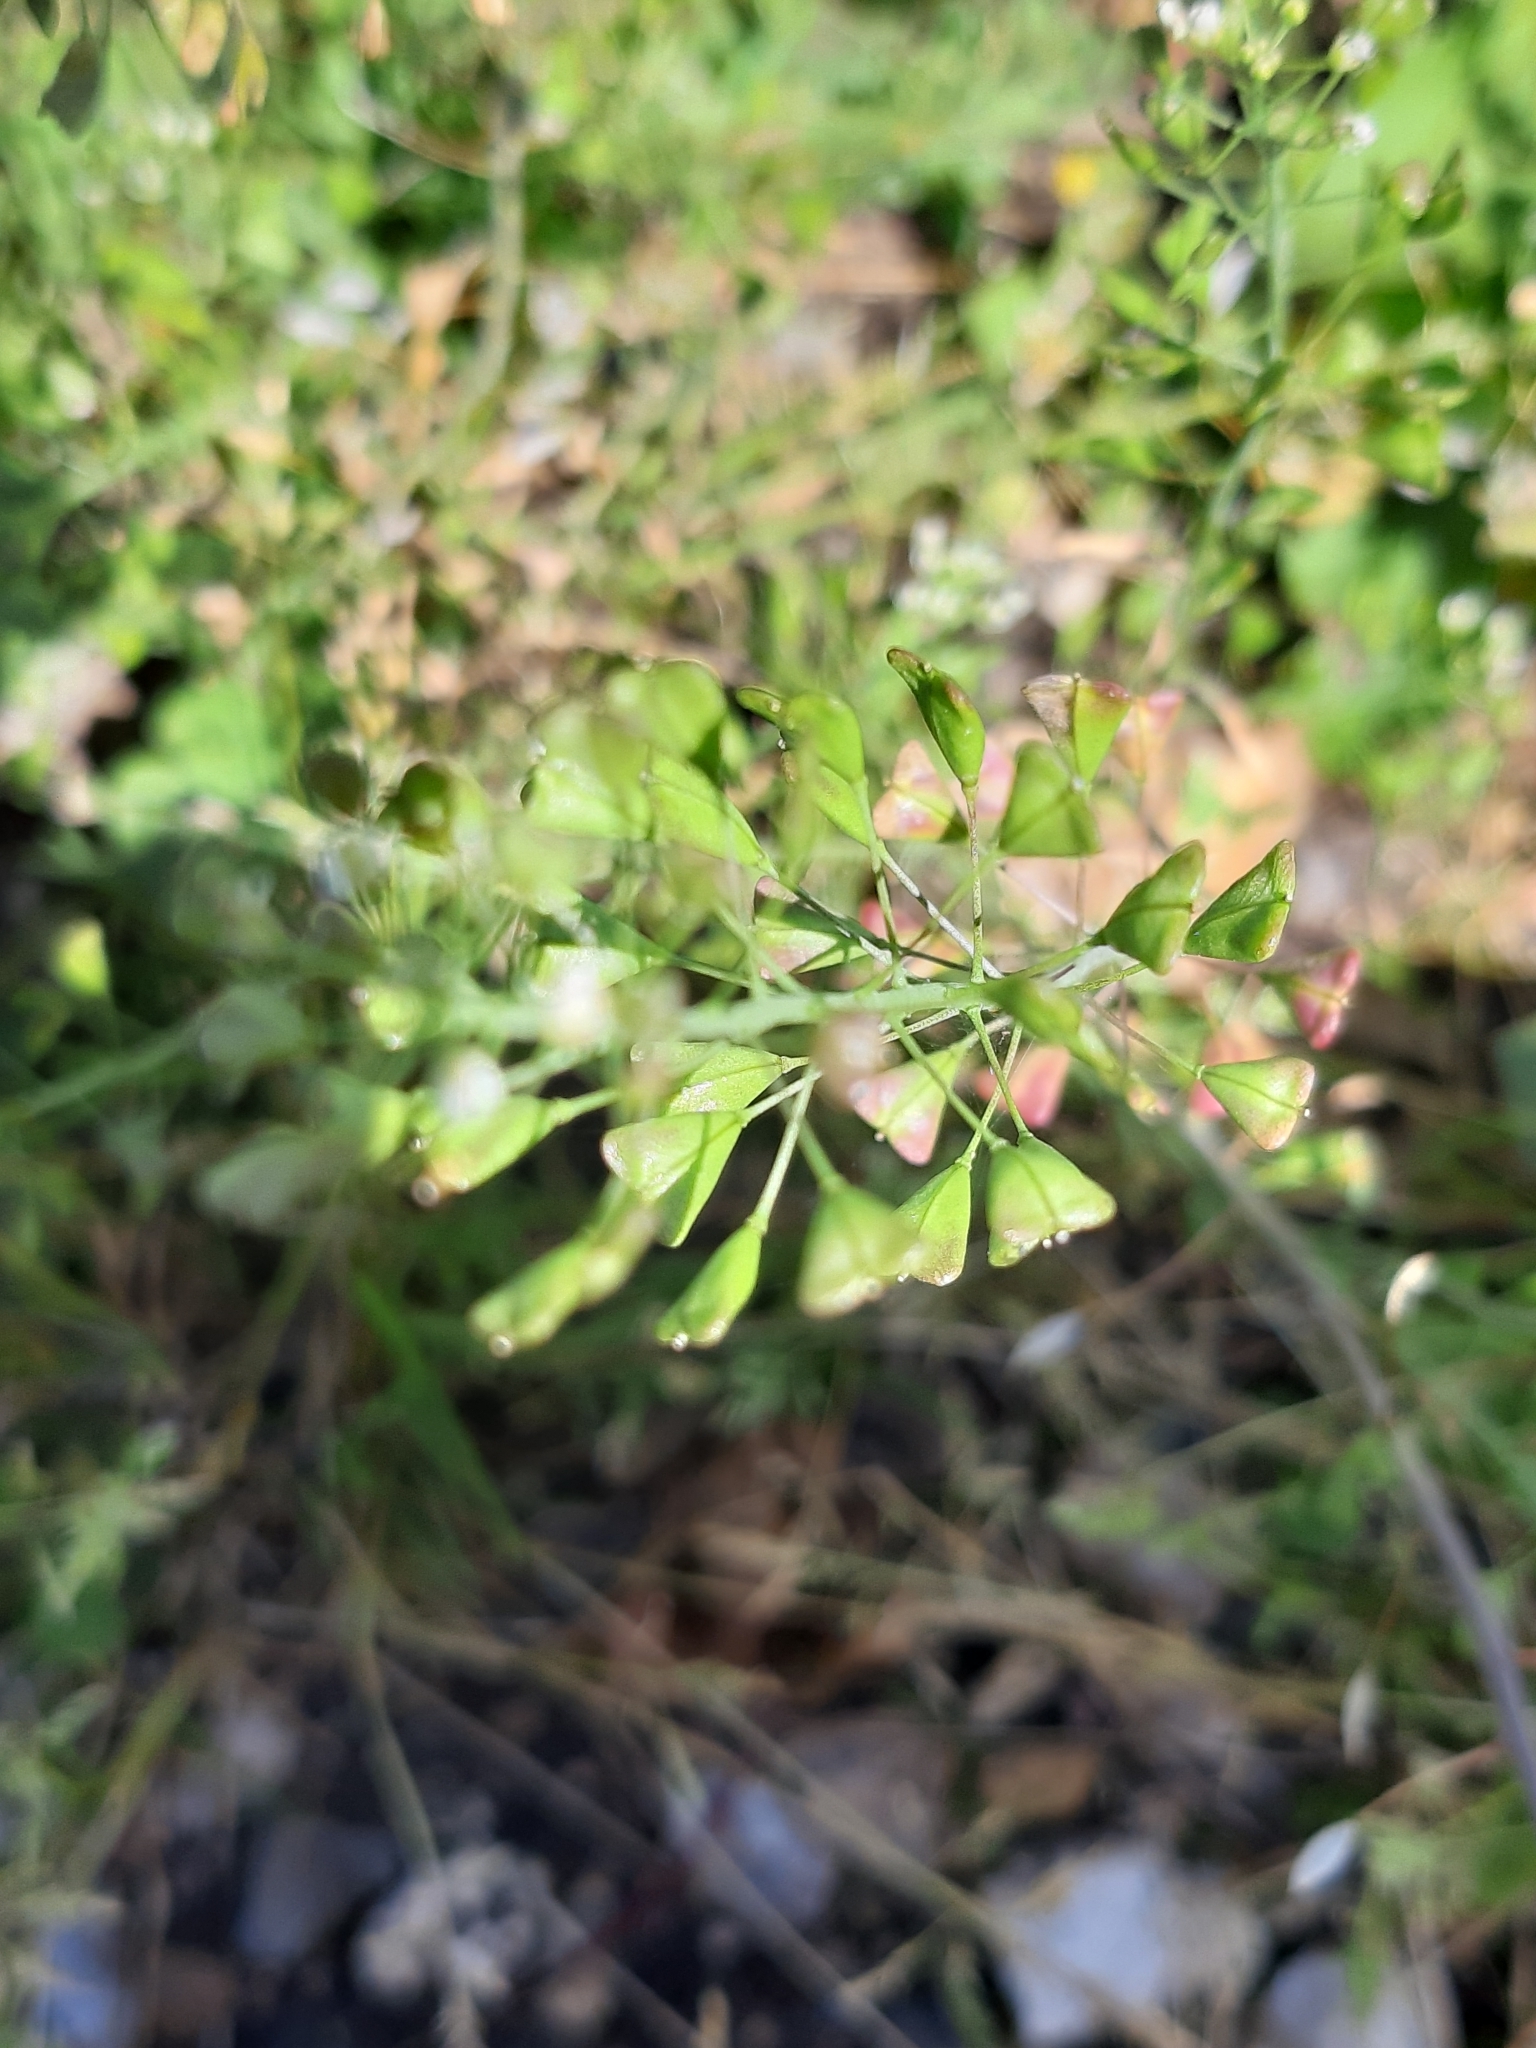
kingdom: Plantae
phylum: Tracheophyta
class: Magnoliopsida
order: Brassicales
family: Brassicaceae
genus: Capsella
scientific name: Capsella bursa-pastoris
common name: Shepherd's purse
